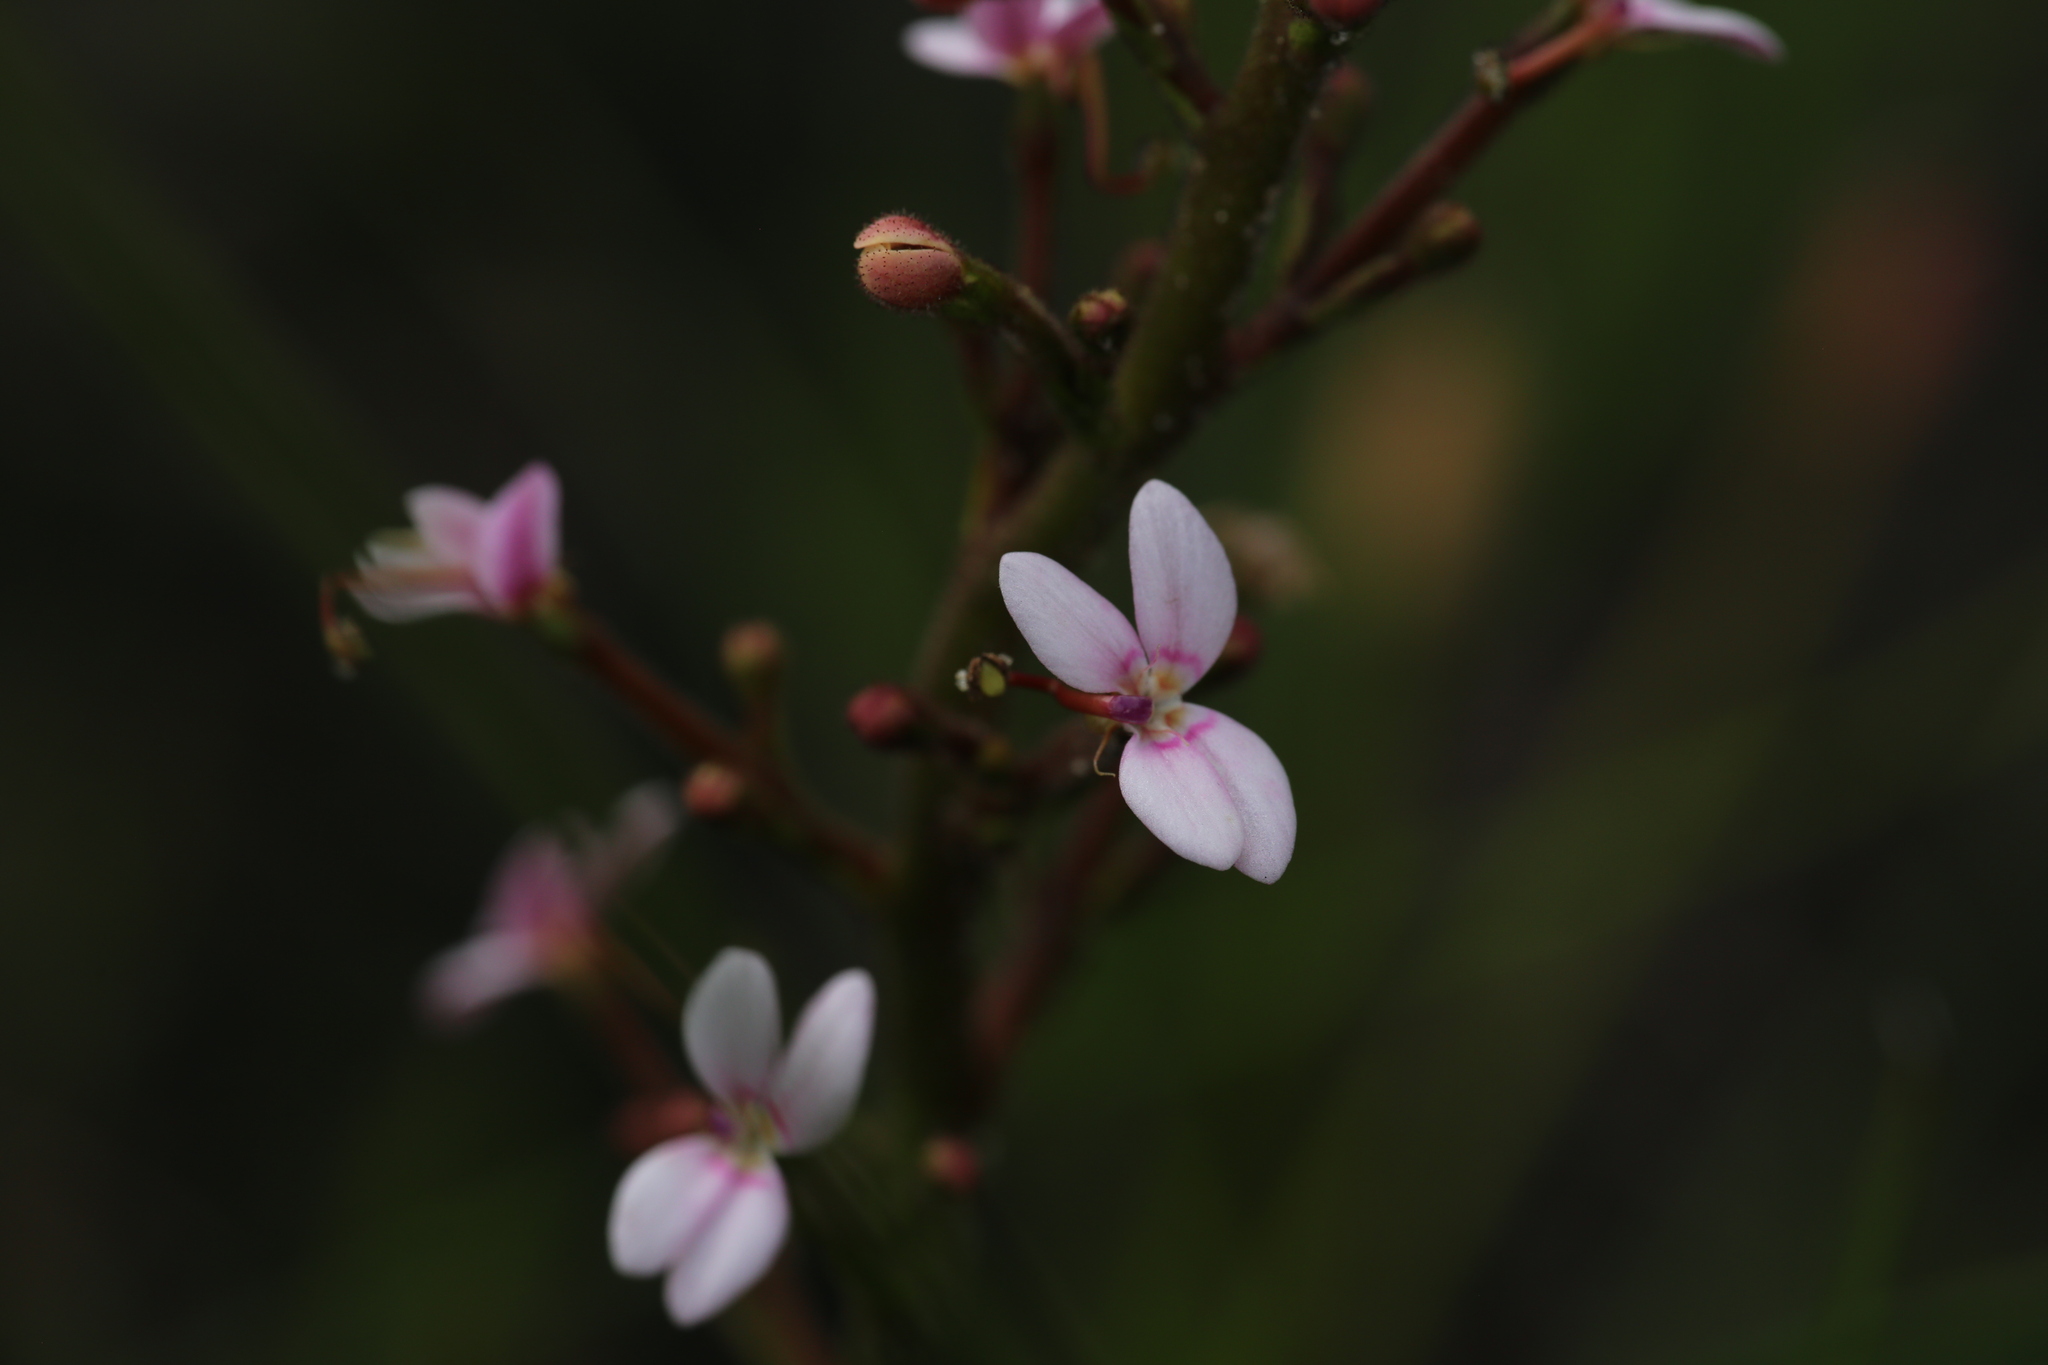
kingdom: Plantae
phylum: Tracheophyta
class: Magnoliopsida
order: Asterales
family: Stylidiaceae
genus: Stylidium
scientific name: Stylidium crassifolium
